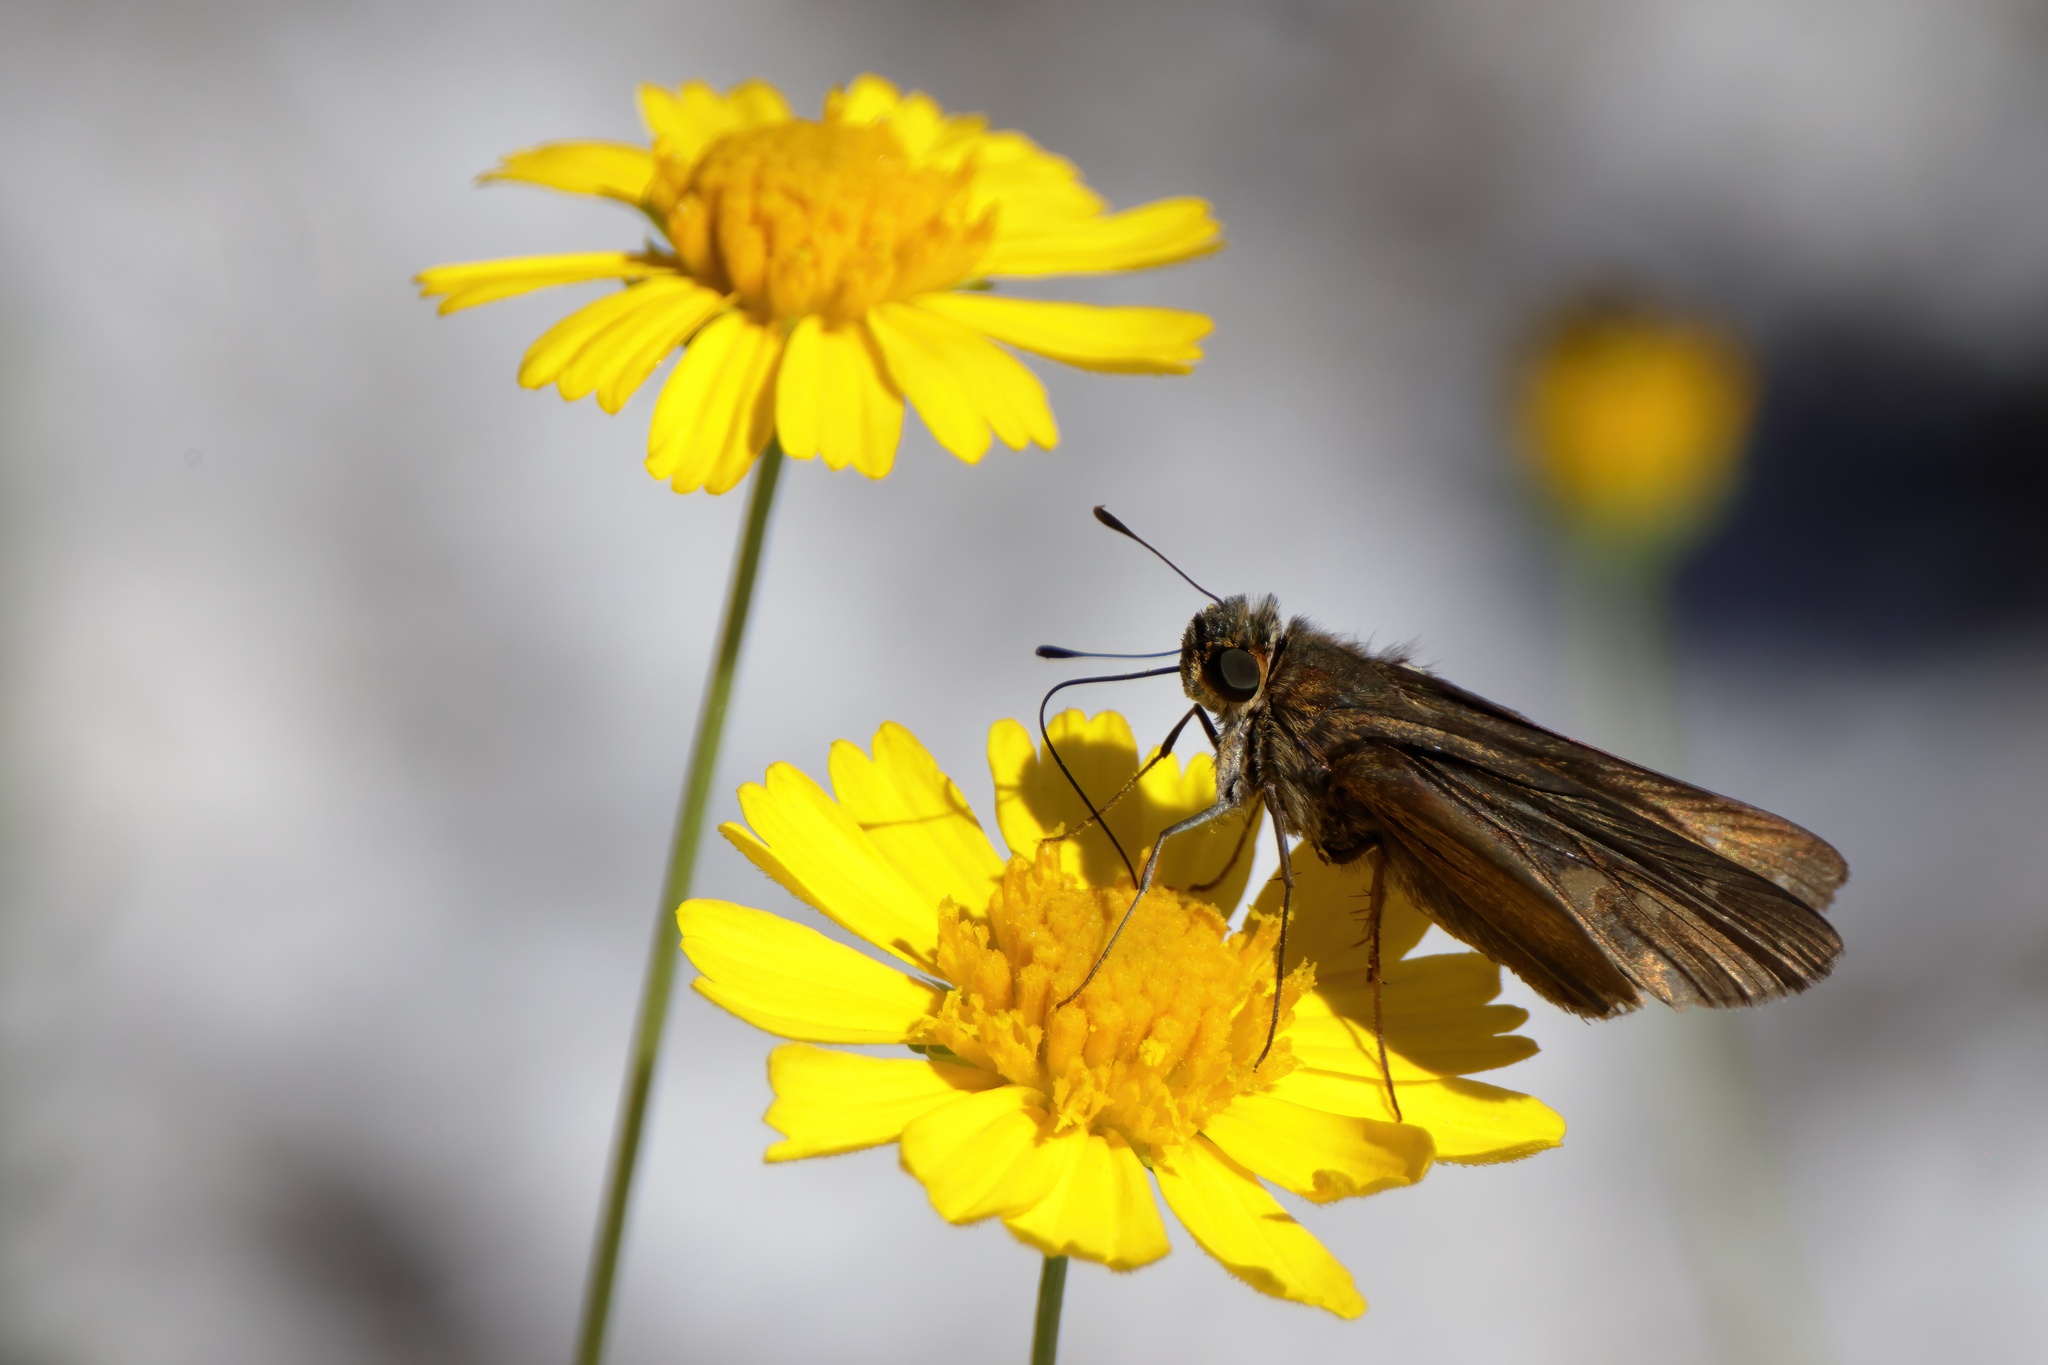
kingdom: Animalia
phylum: Arthropoda
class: Insecta
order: Lepidoptera
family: Hesperiidae
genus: Panoquina
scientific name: Panoquina ocola
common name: Ocola skipper
